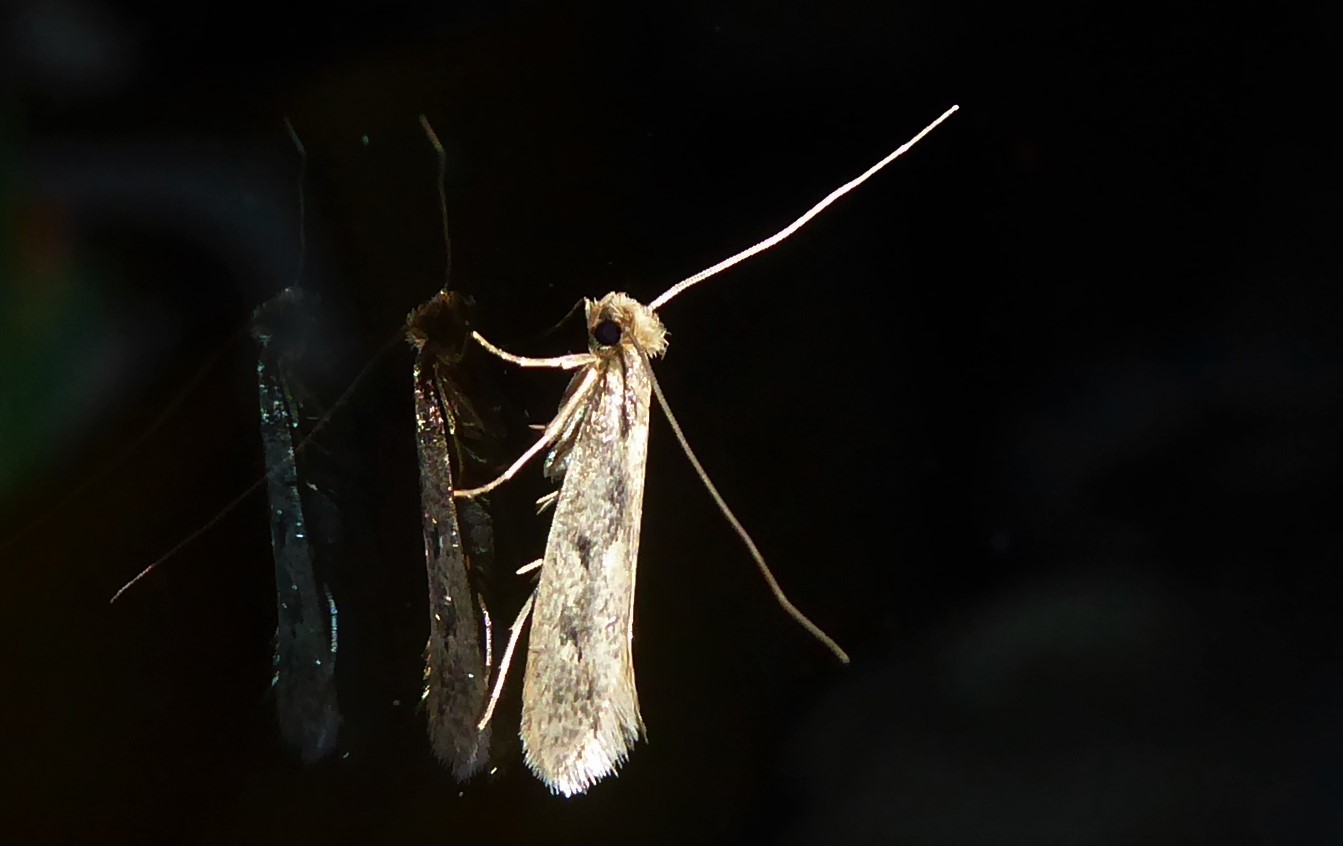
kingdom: Animalia
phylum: Arthropoda
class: Insecta
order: Lepidoptera
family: Tineidae
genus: Tinea
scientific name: Tinea pallescentella
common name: Large pale clothes moth
